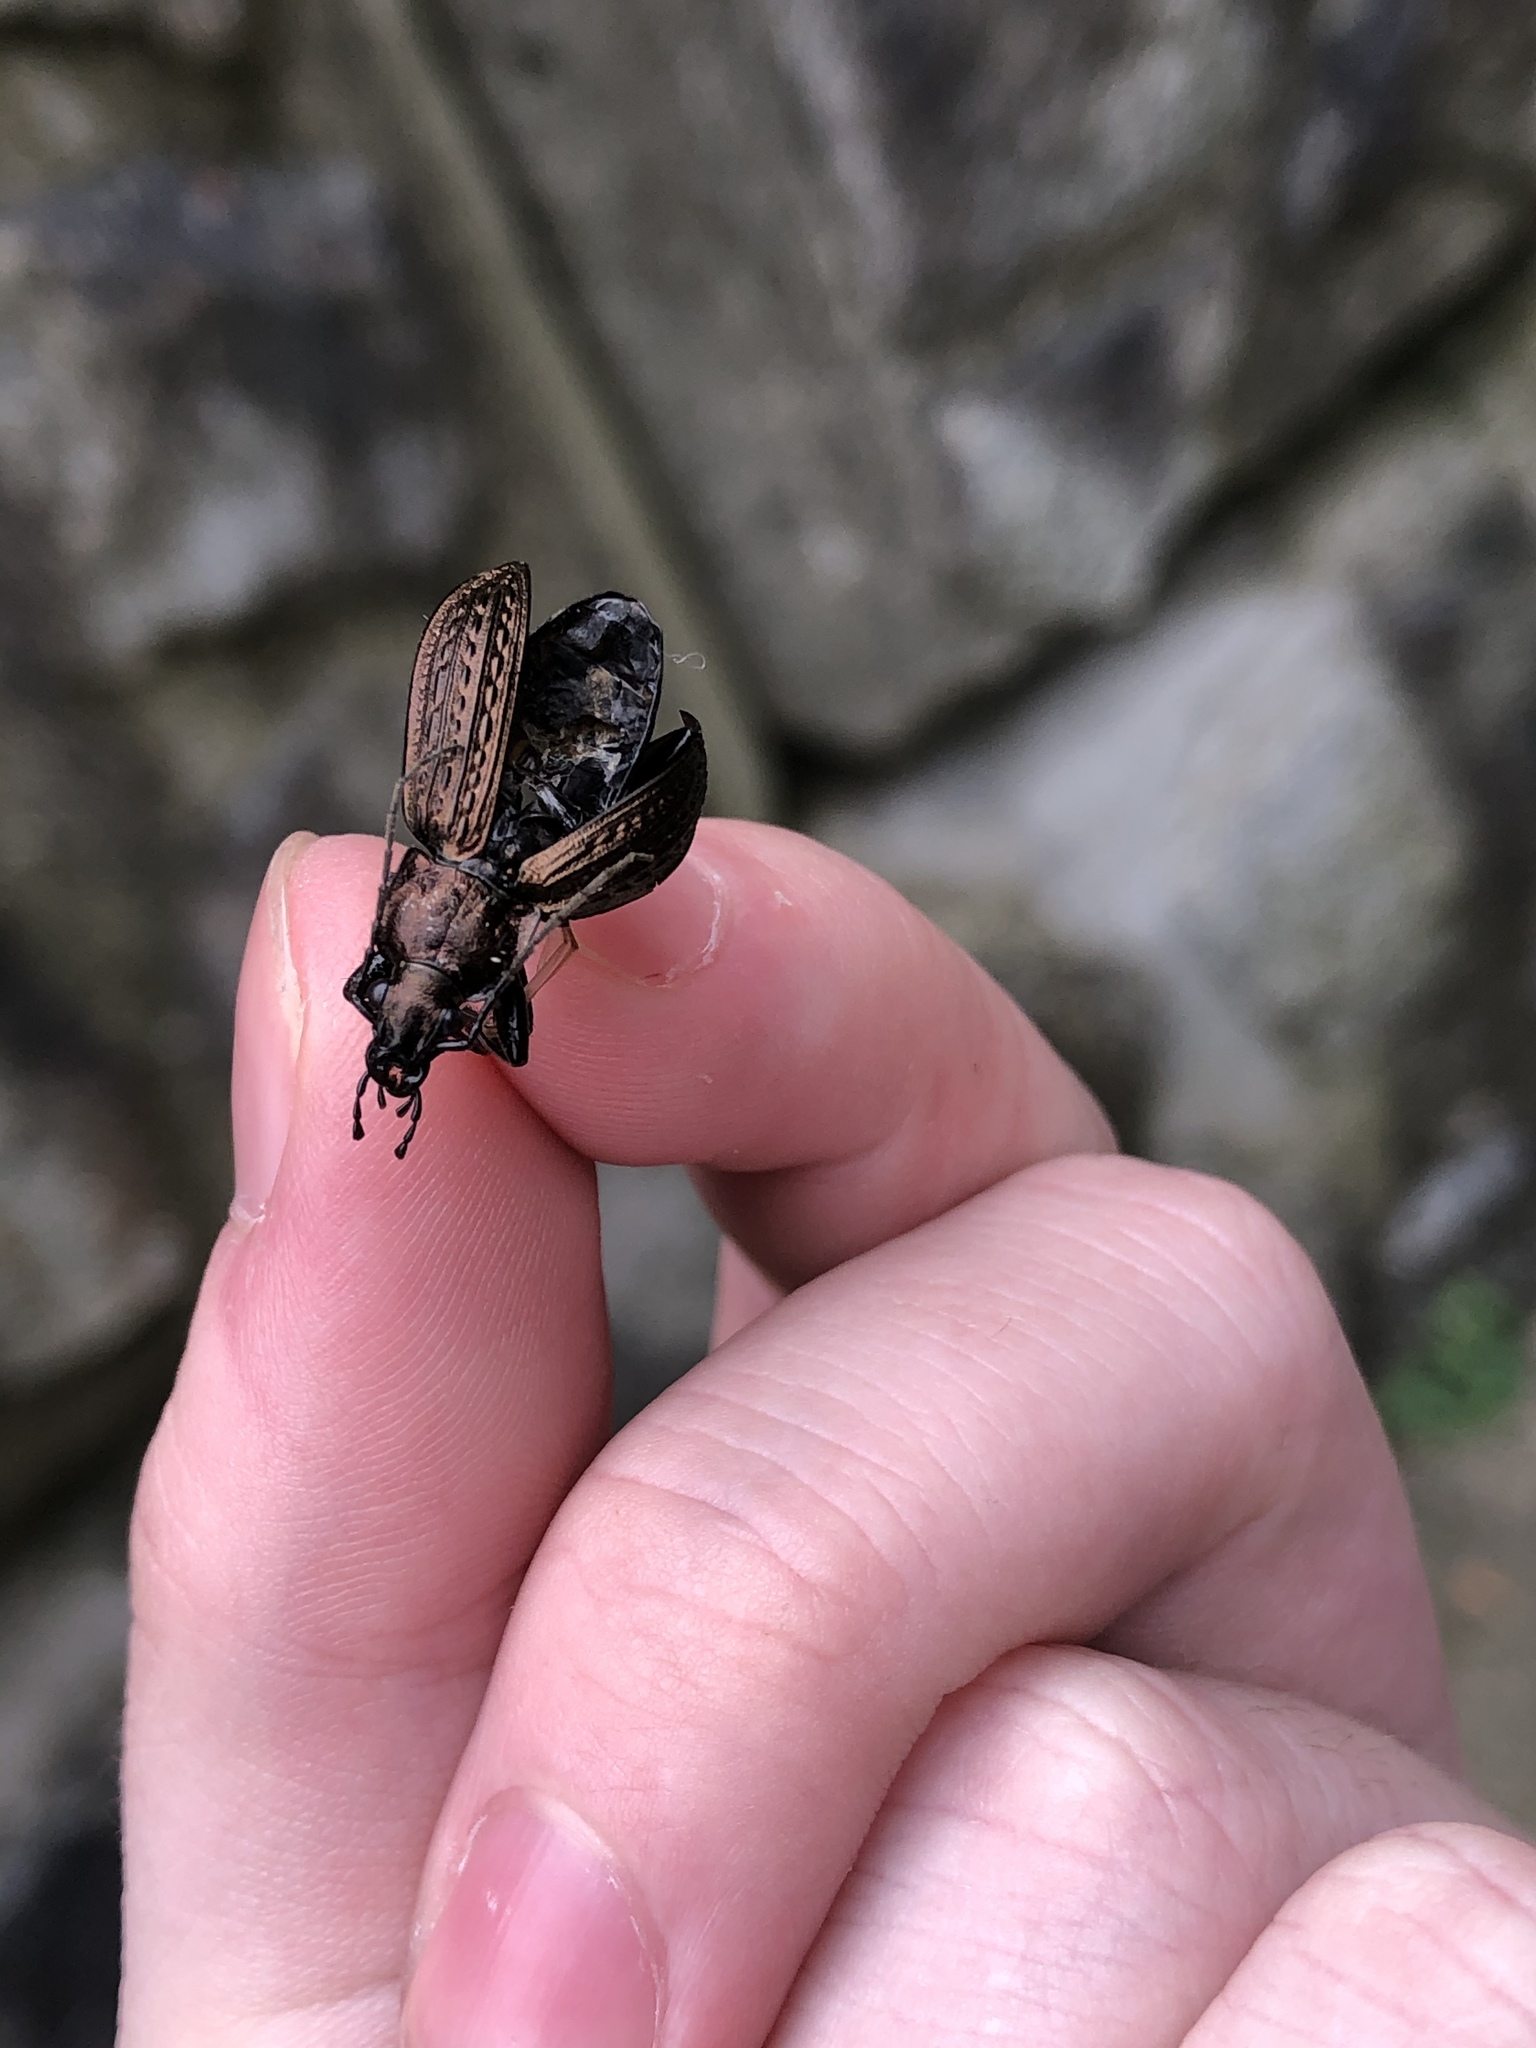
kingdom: Animalia
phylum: Arthropoda
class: Insecta
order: Coleoptera
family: Carabidae
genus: Carabus
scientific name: Carabus granulatus
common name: Granulate ground beetle
